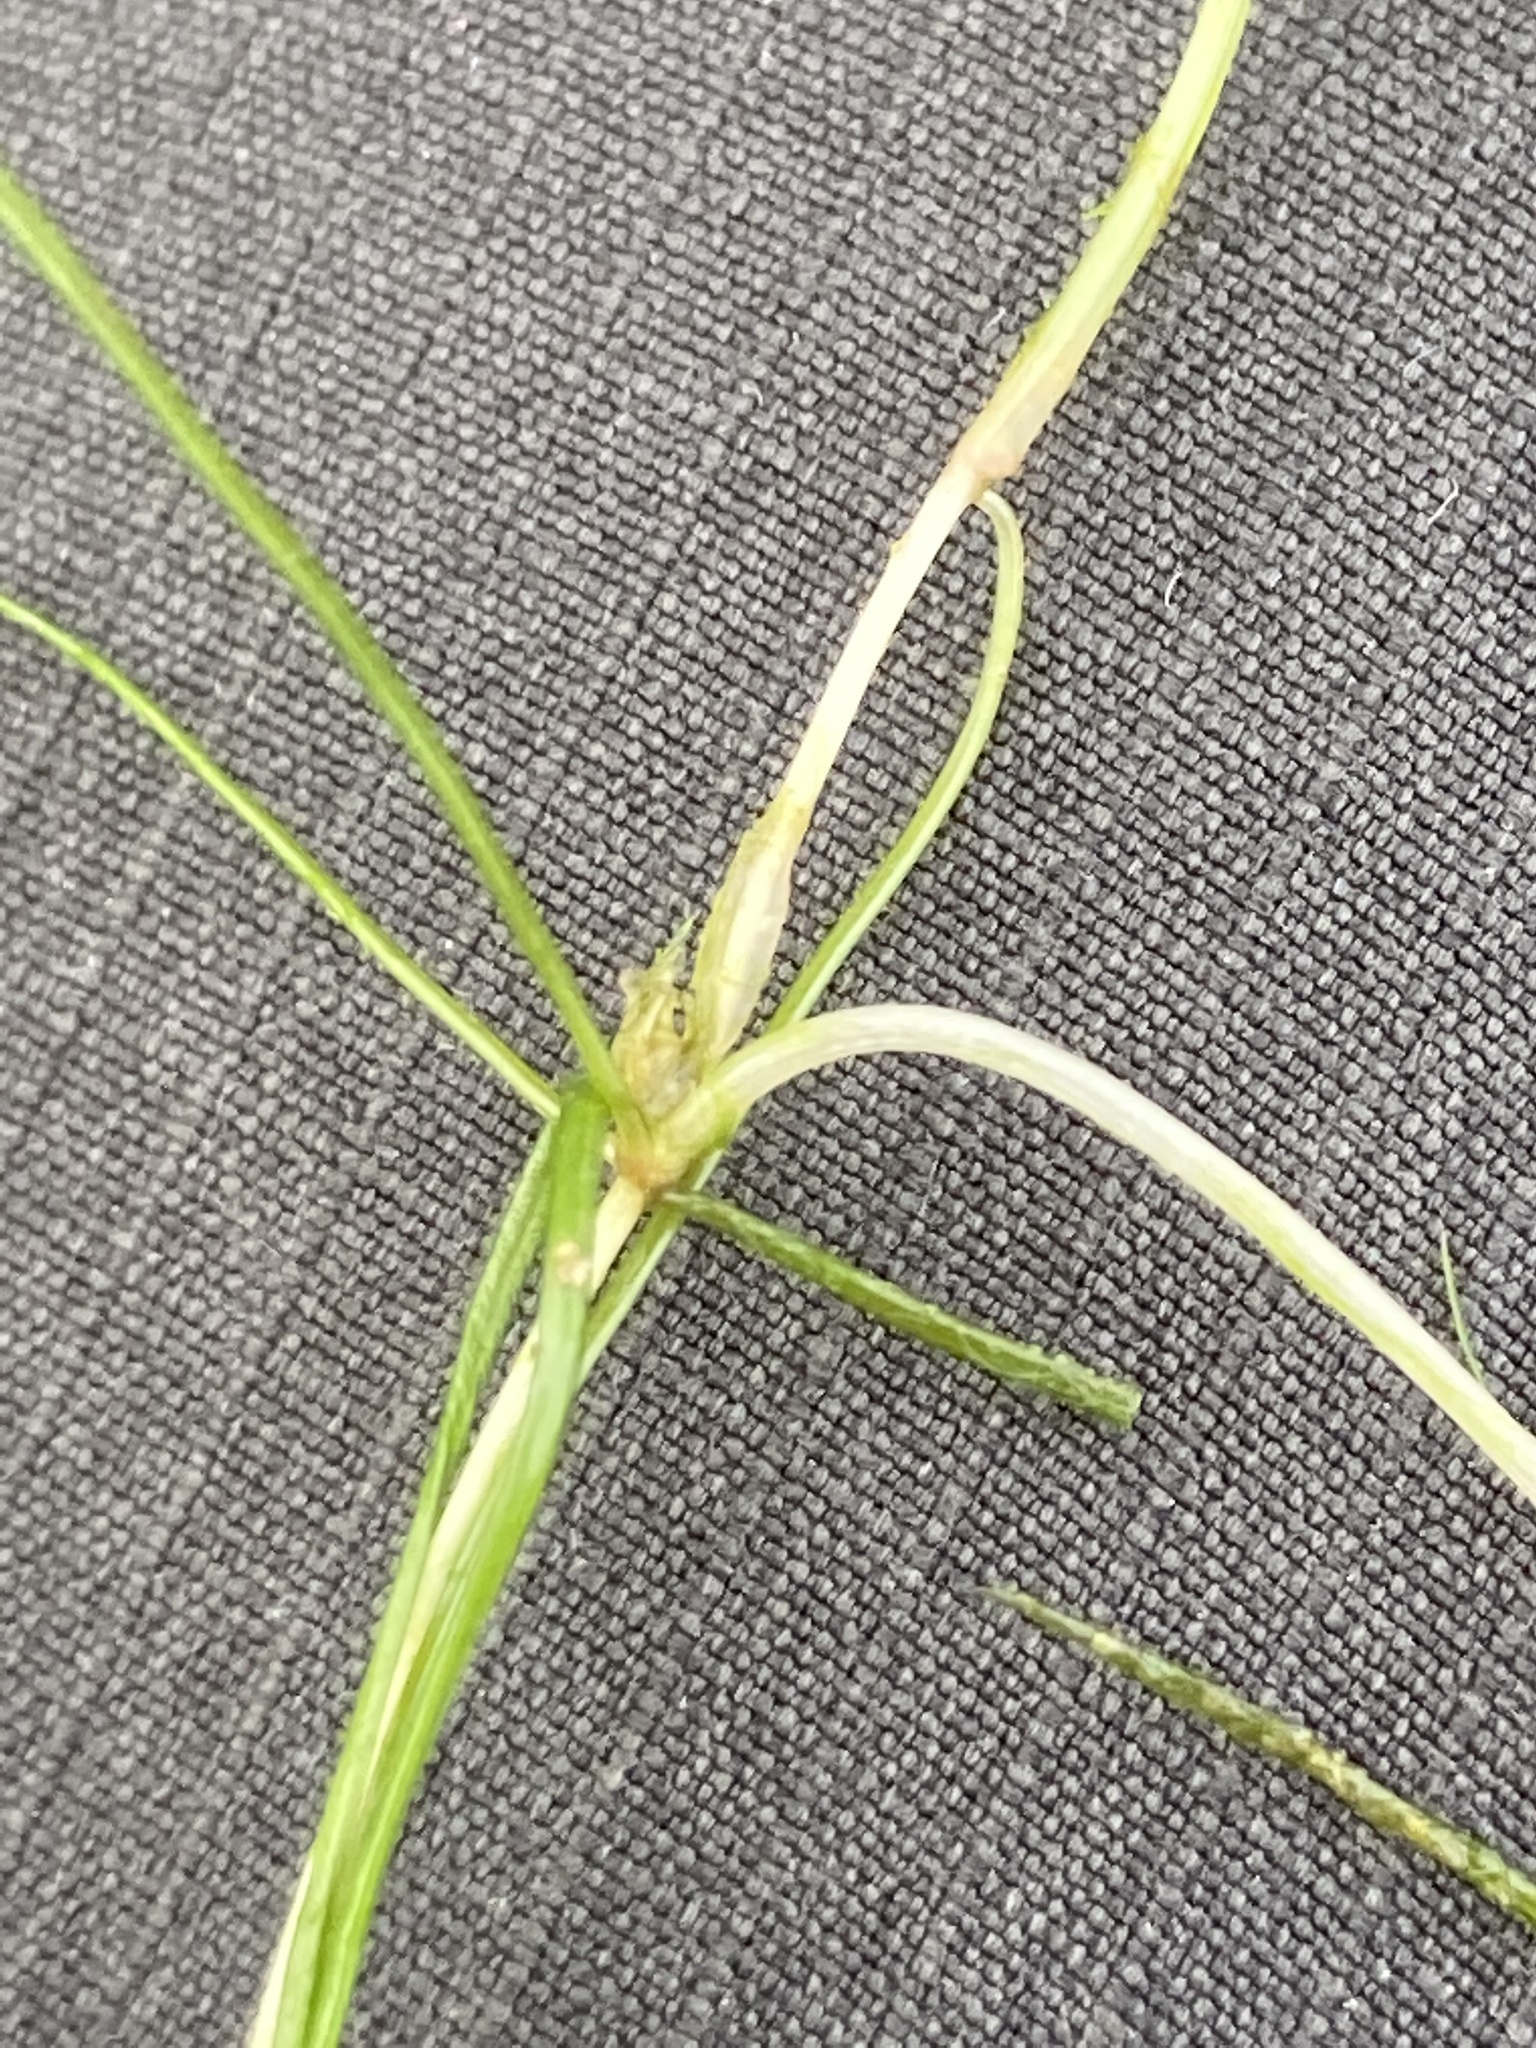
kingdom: Plantae
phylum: Tracheophyta
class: Liliopsida
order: Alismatales
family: Potamogetonaceae
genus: Zannichellia
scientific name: Zannichellia palustris
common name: Horned pondweed
